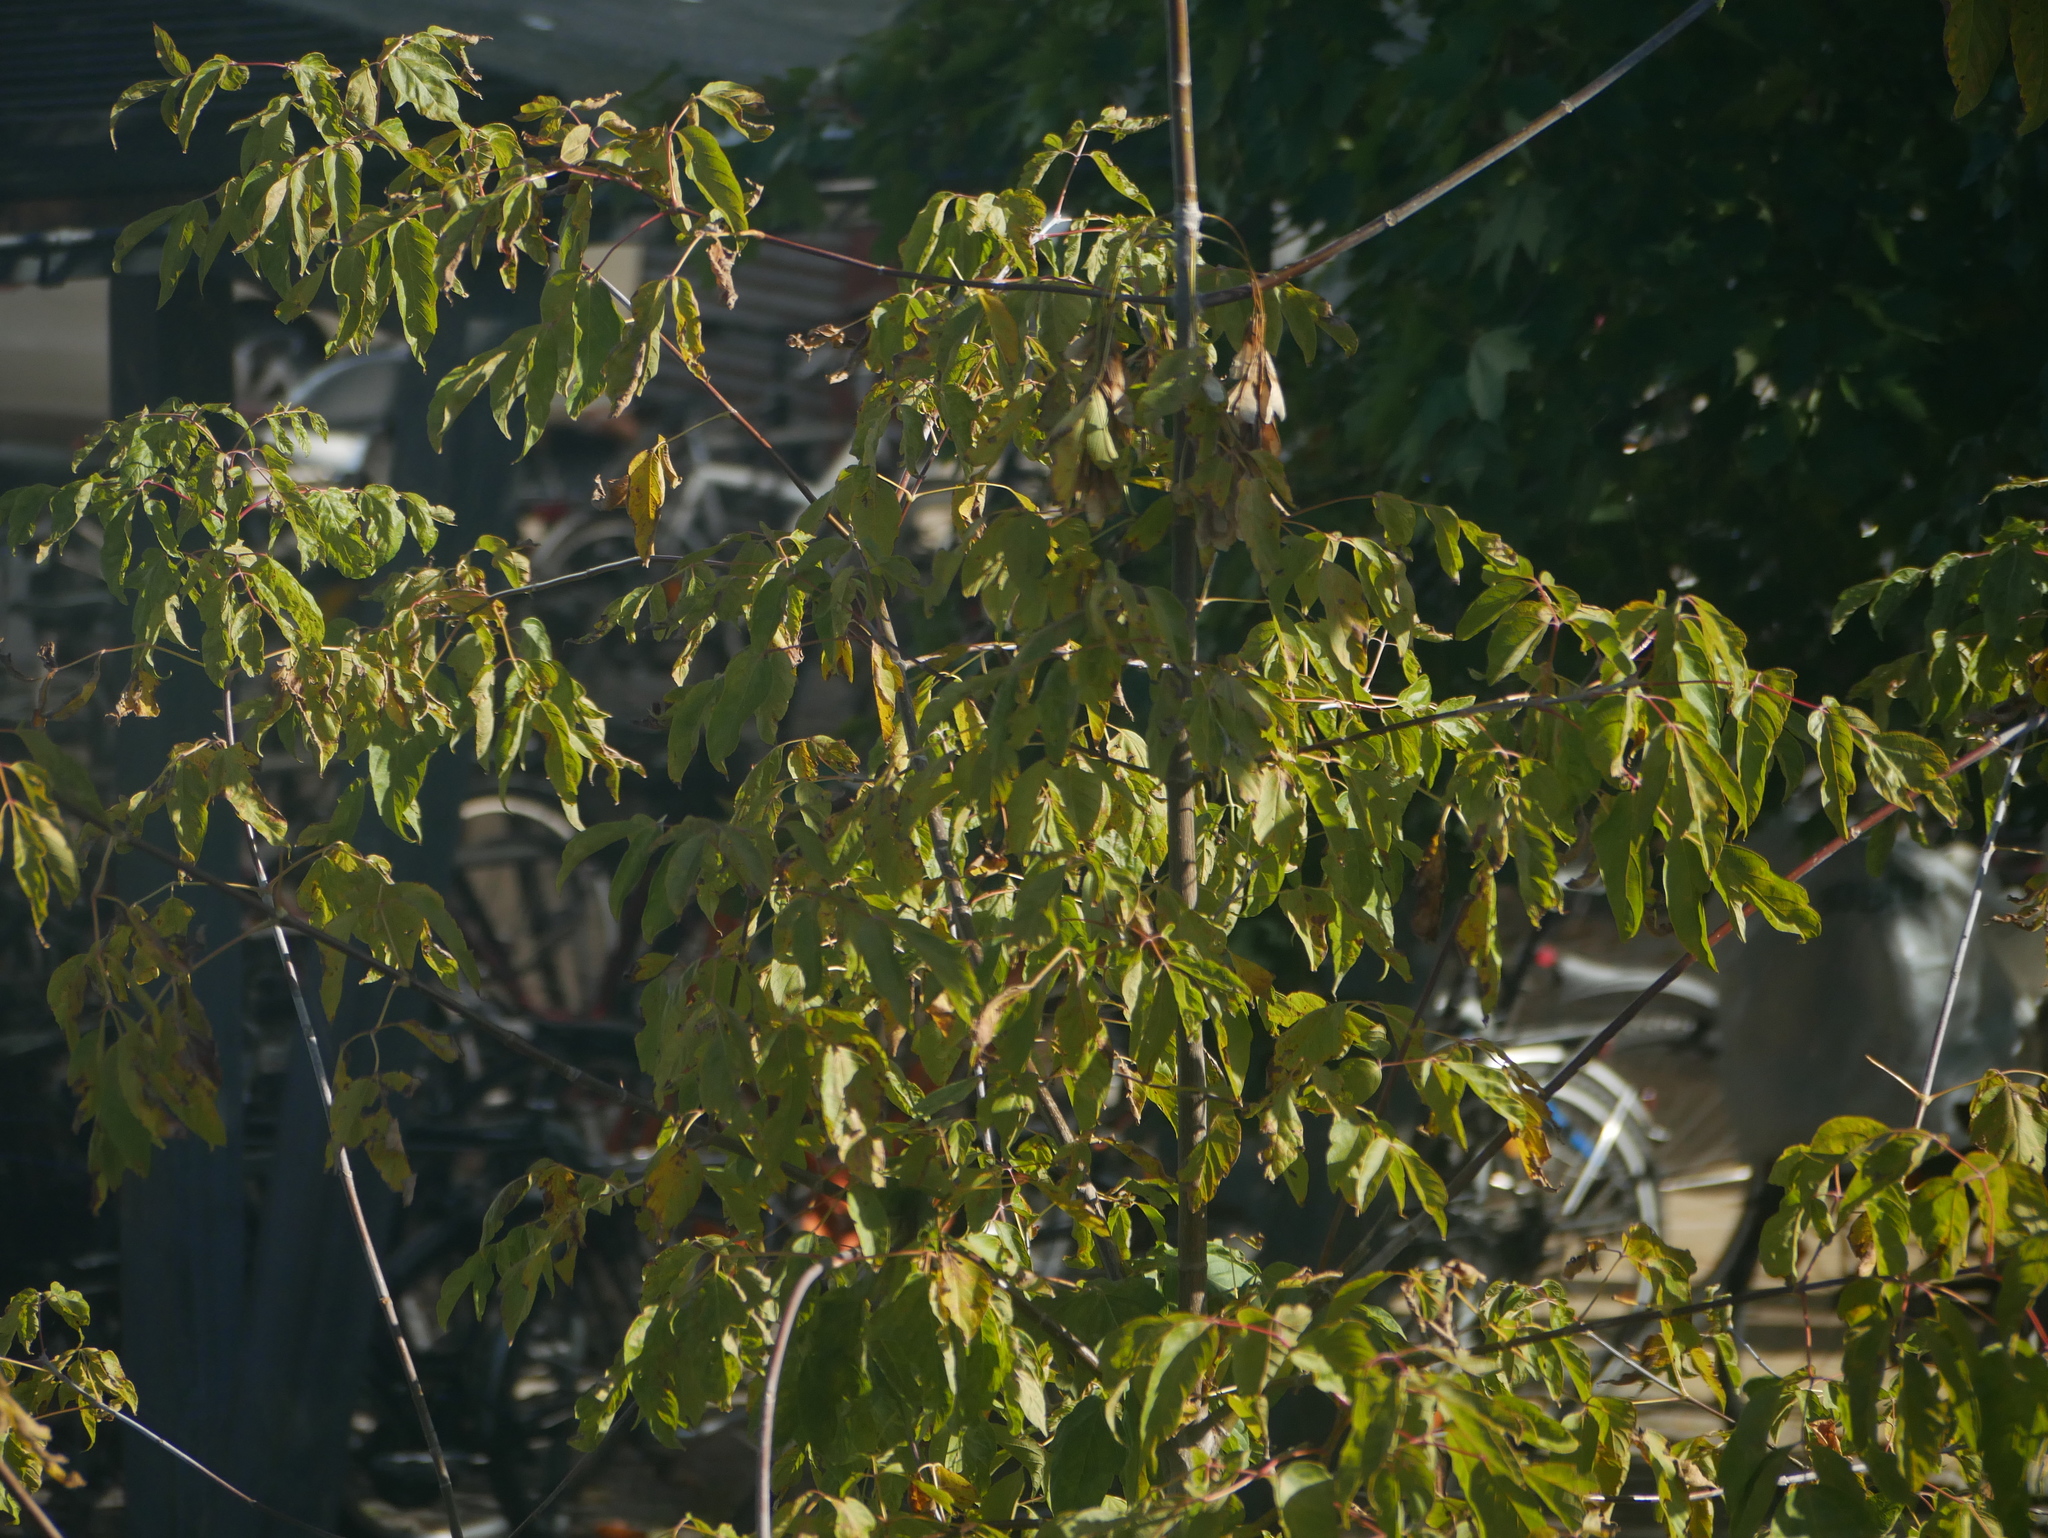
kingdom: Plantae
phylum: Tracheophyta
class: Magnoliopsida
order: Sapindales
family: Sapindaceae
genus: Acer
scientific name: Acer negundo
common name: Ashleaf maple
